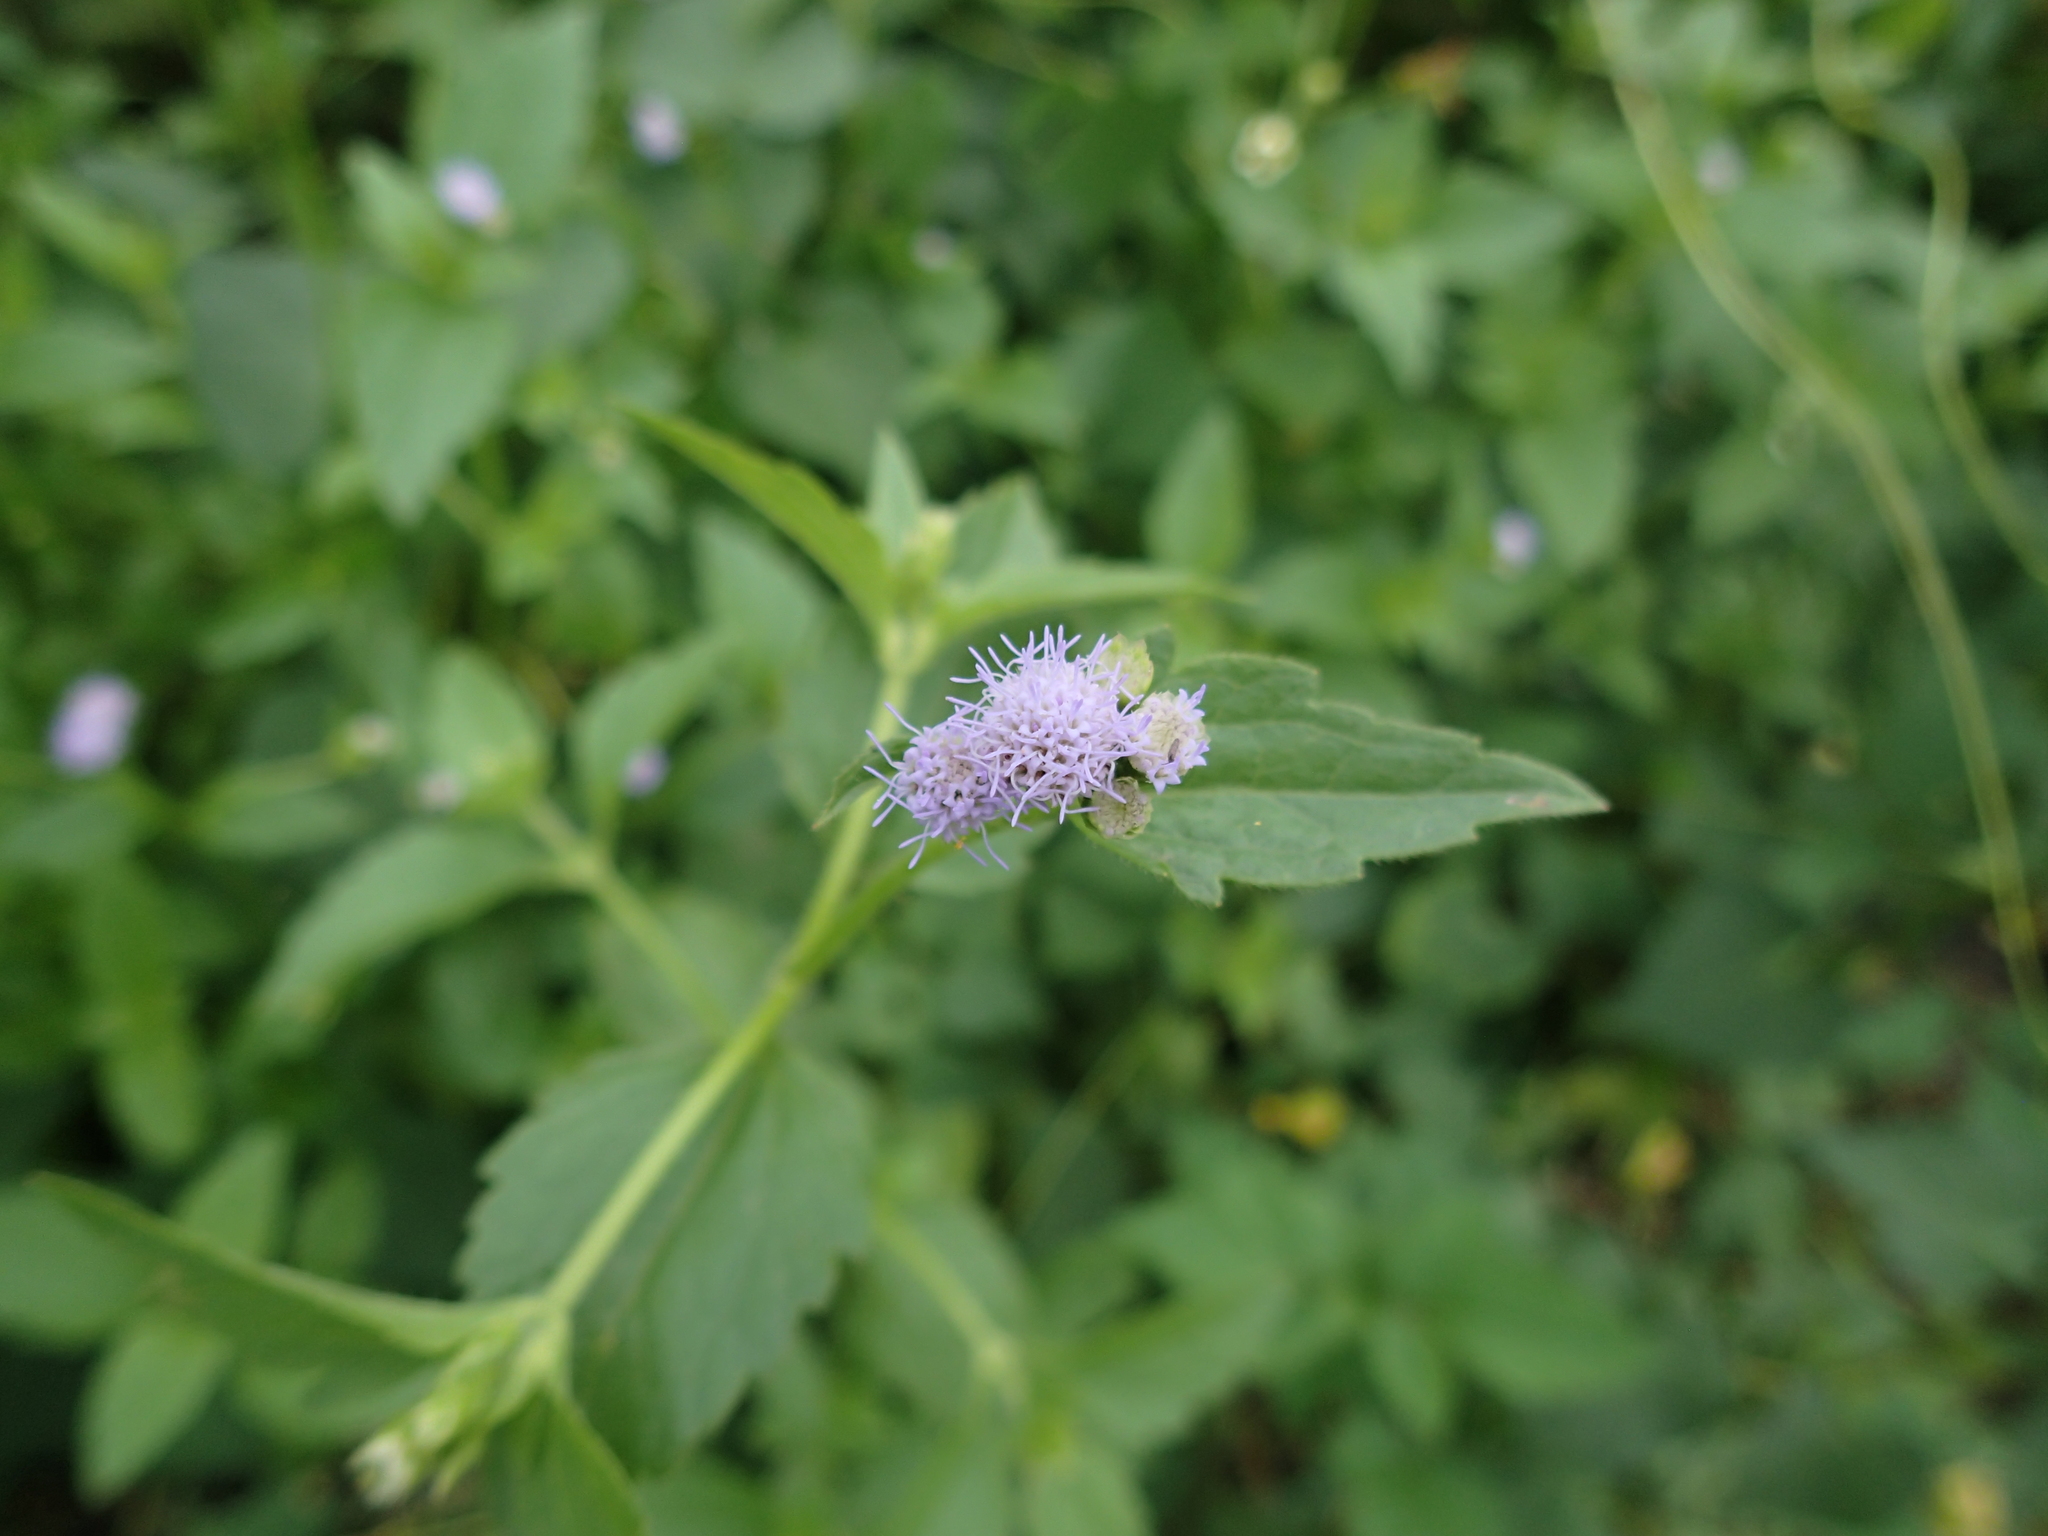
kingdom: Plantae
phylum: Tracheophyta
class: Magnoliopsida
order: Asterales
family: Asteraceae
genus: Praxelis
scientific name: Praxelis clematidea
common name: Praxelis
